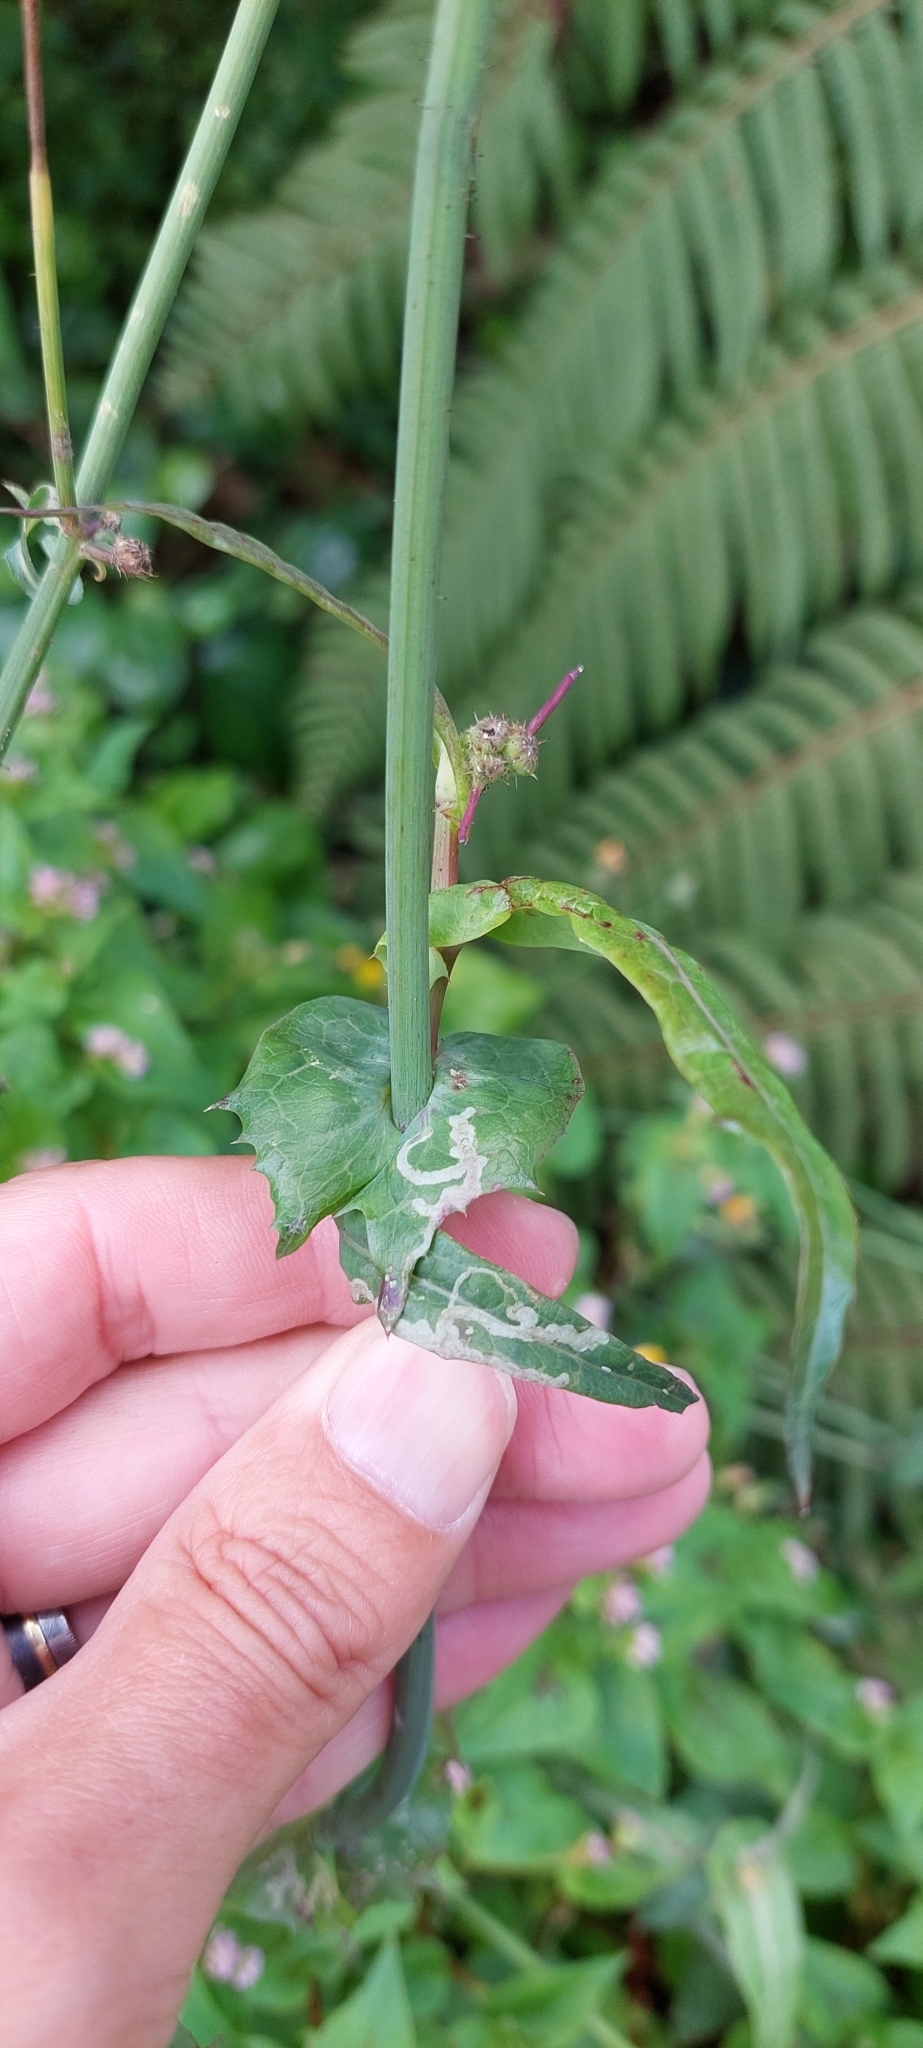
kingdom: Plantae
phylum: Tracheophyta
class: Magnoliopsida
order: Asterales
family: Asteraceae
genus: Sonchus
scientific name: Sonchus oleraceus
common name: Common sowthistle
